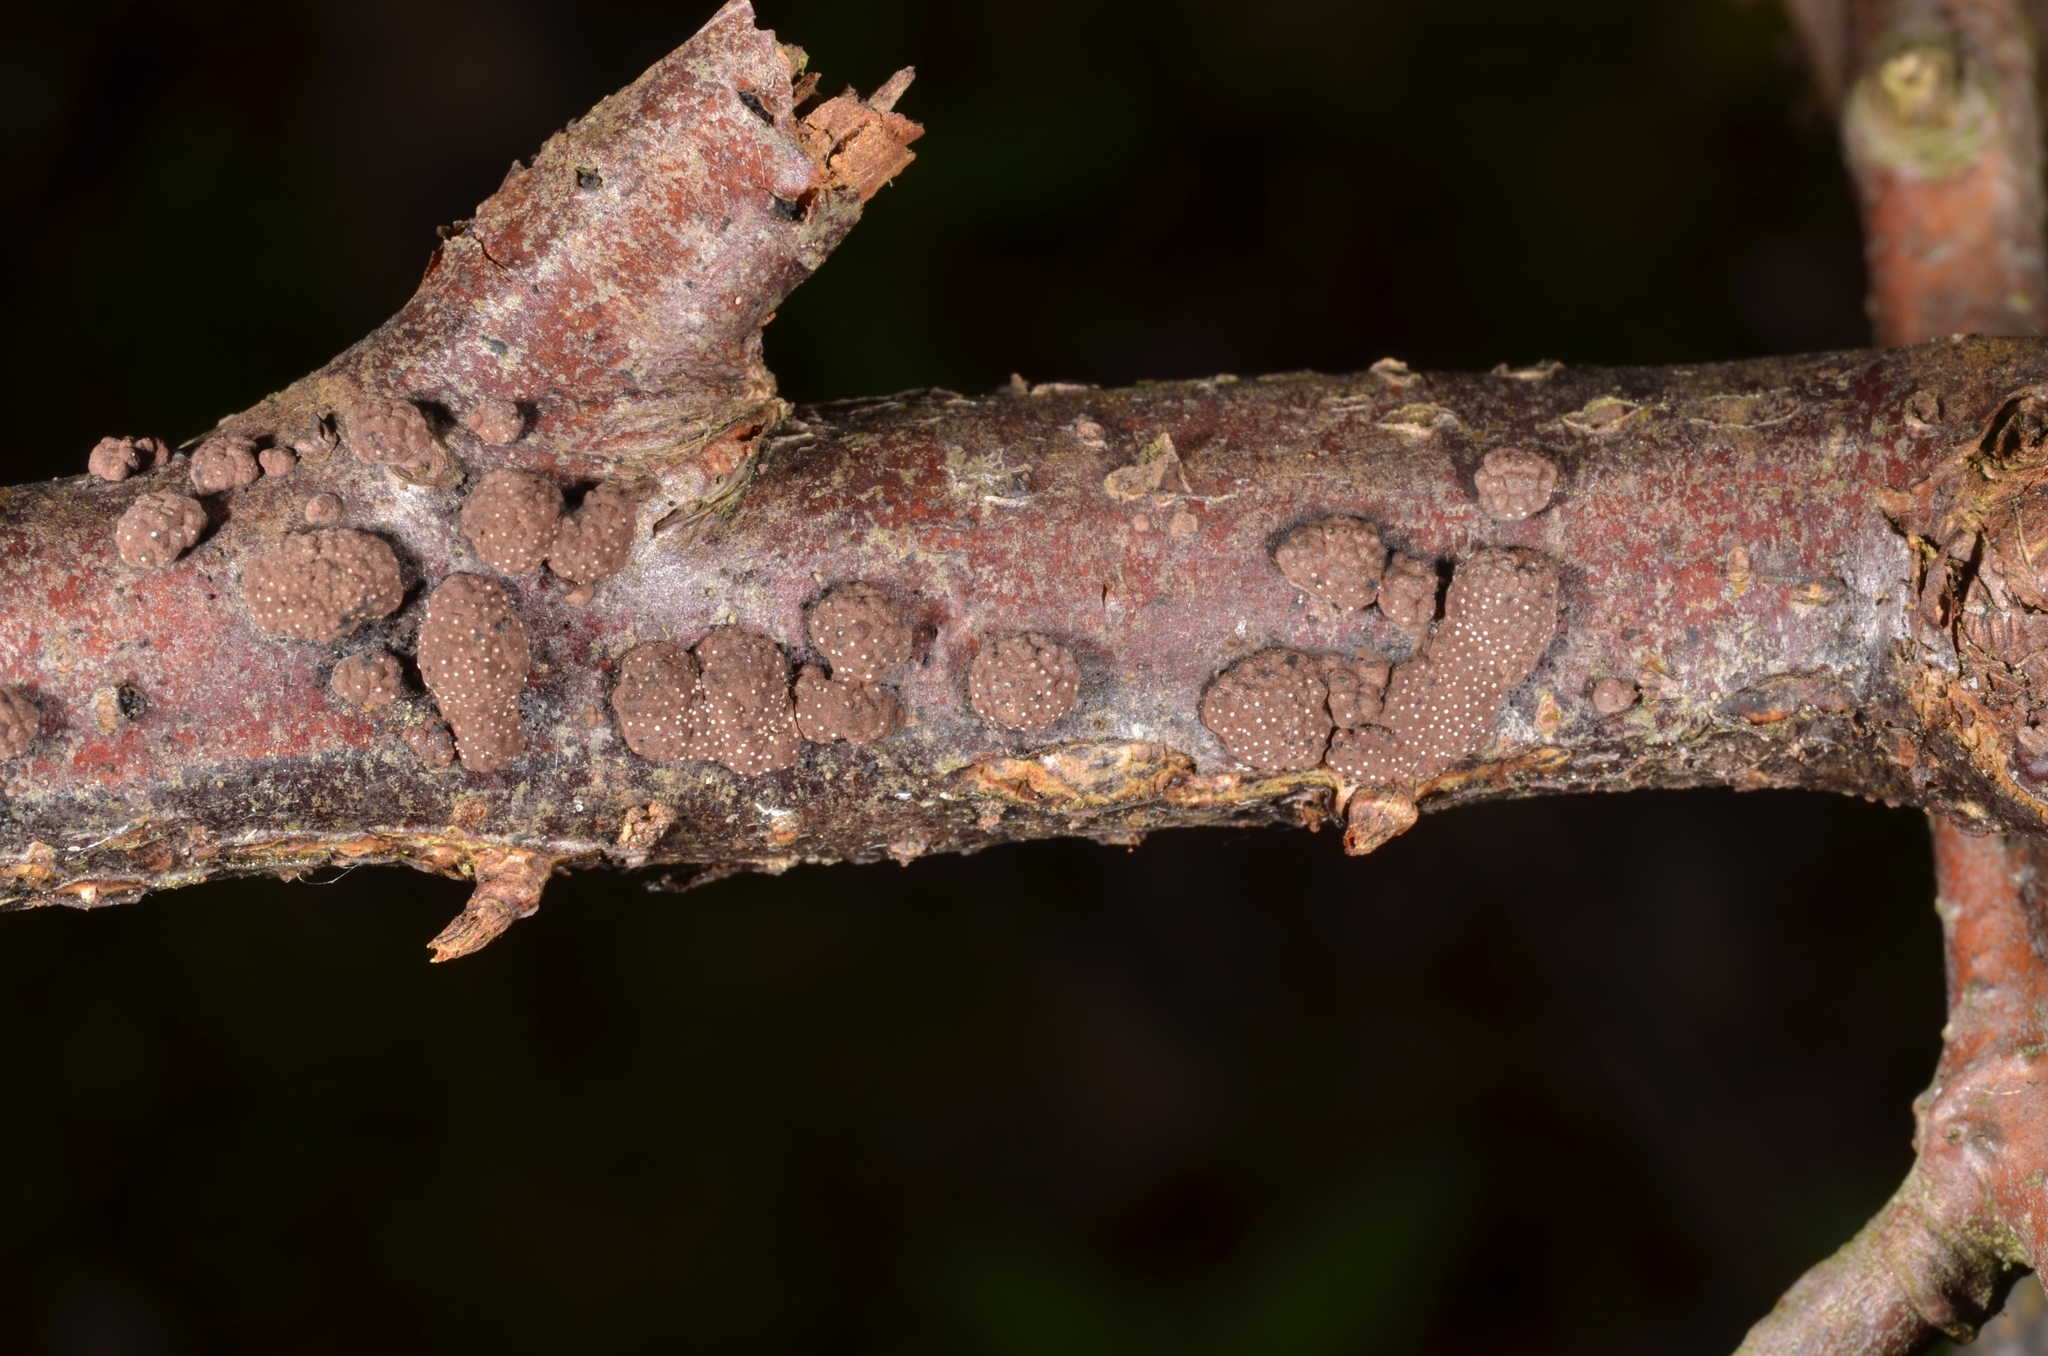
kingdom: Fungi
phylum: Ascomycota
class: Sordariomycetes
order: Xylariales
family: Hypoxylaceae
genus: Hypoxylon
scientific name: Hypoxylon perforatum
